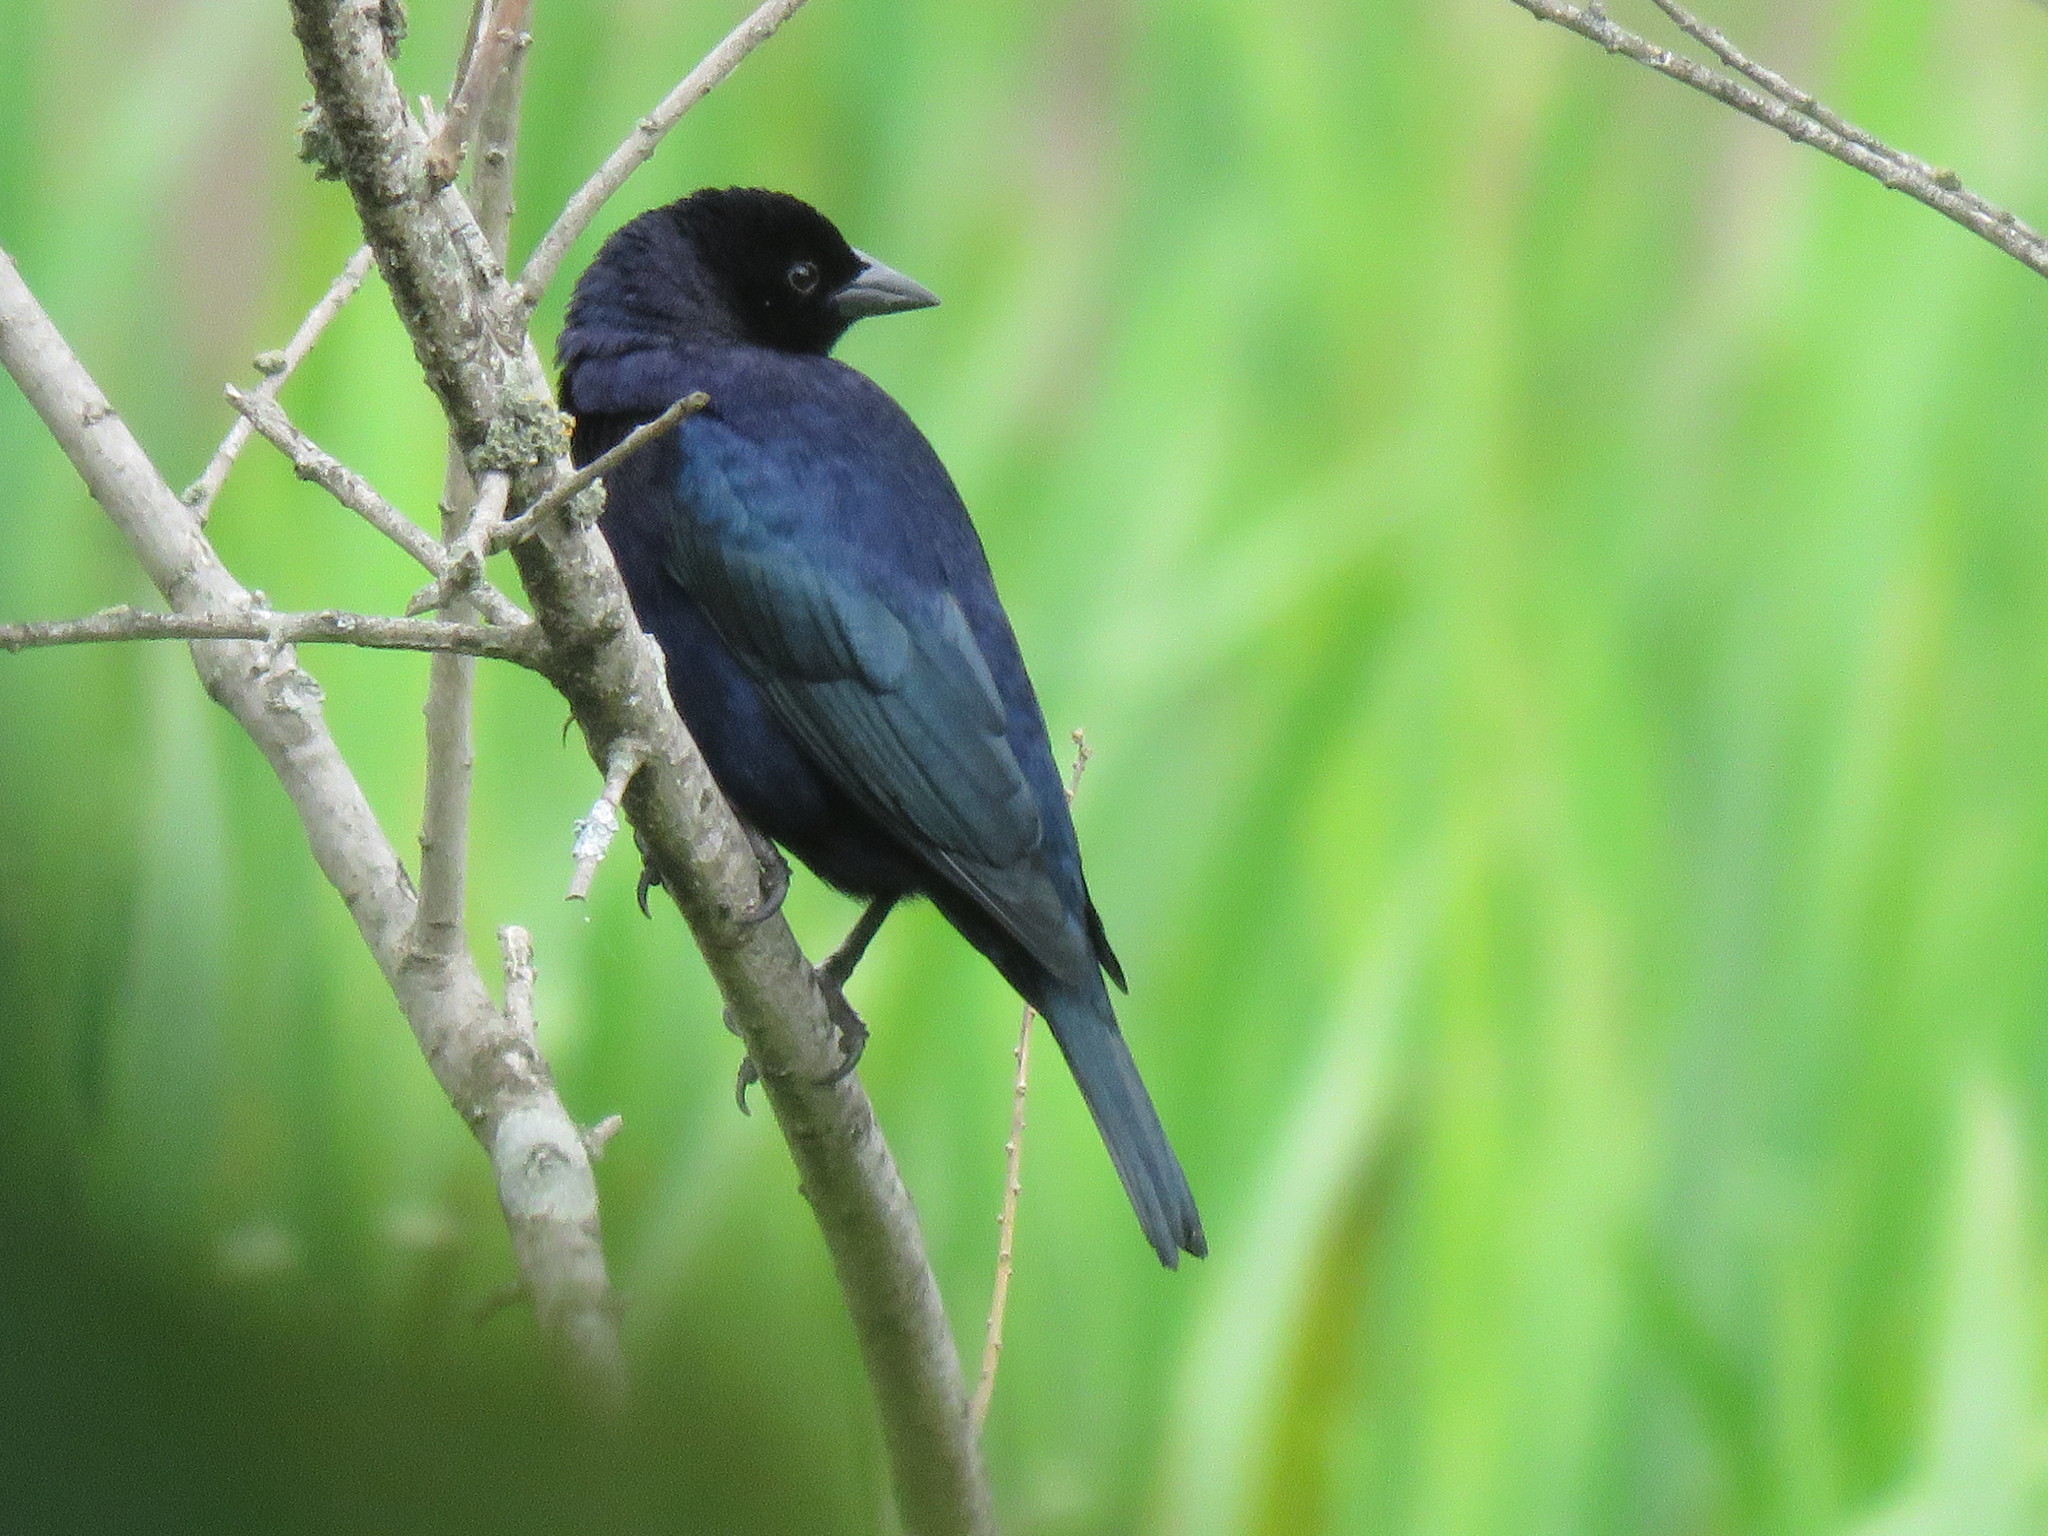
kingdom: Animalia
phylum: Chordata
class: Aves
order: Passeriformes
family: Icteridae
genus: Molothrus
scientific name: Molothrus bonariensis
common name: Shiny cowbird
